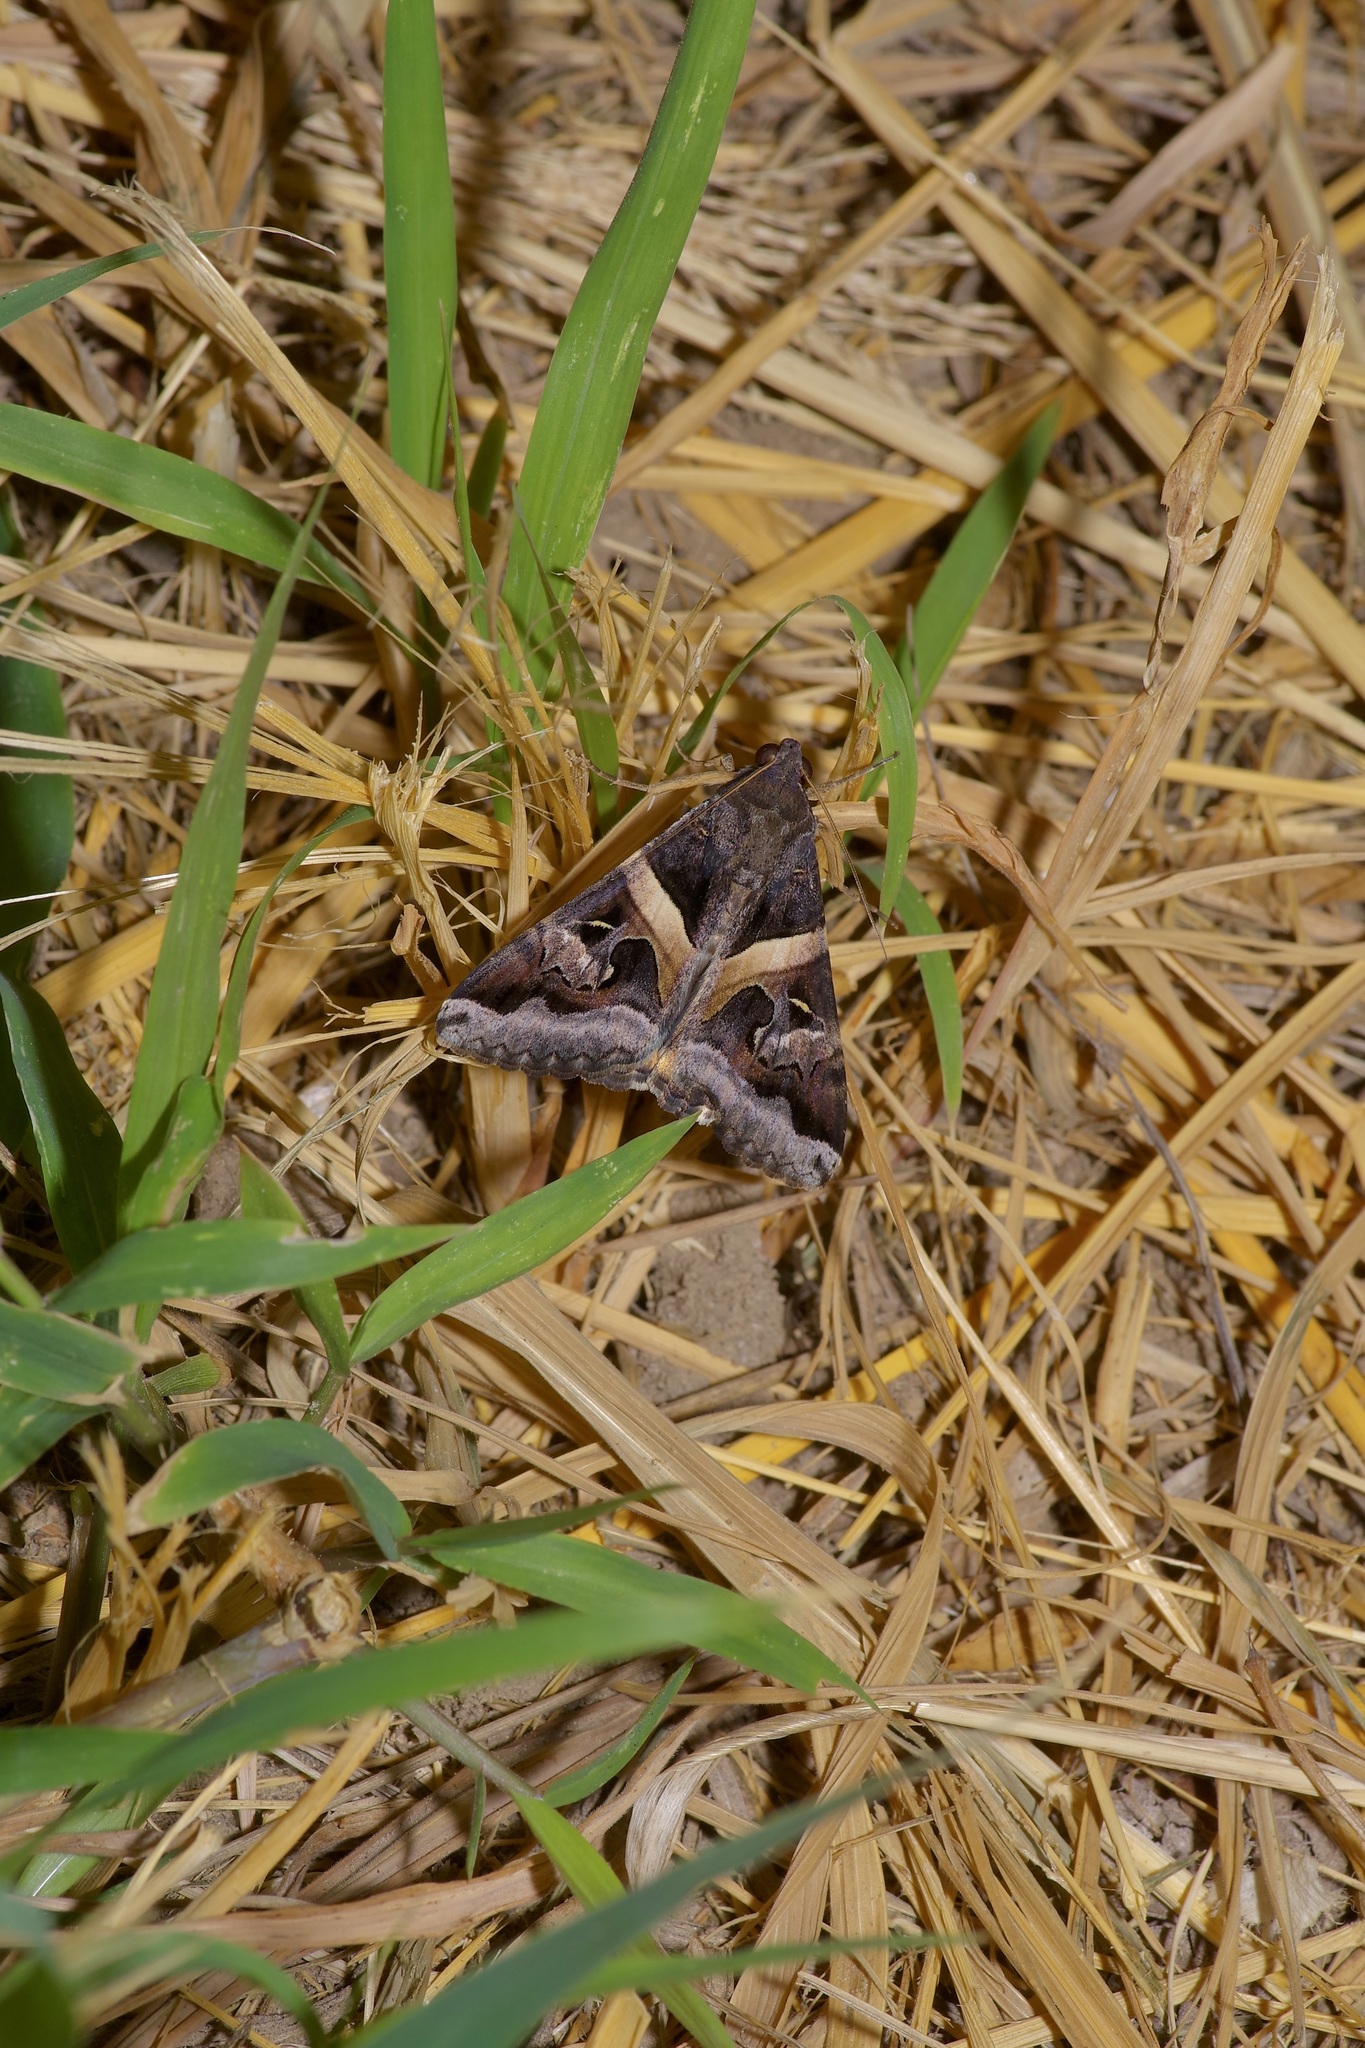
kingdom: Animalia
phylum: Arthropoda
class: Insecta
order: Lepidoptera
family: Erebidae
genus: Melipotis
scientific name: Melipotis indomita
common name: Moth
